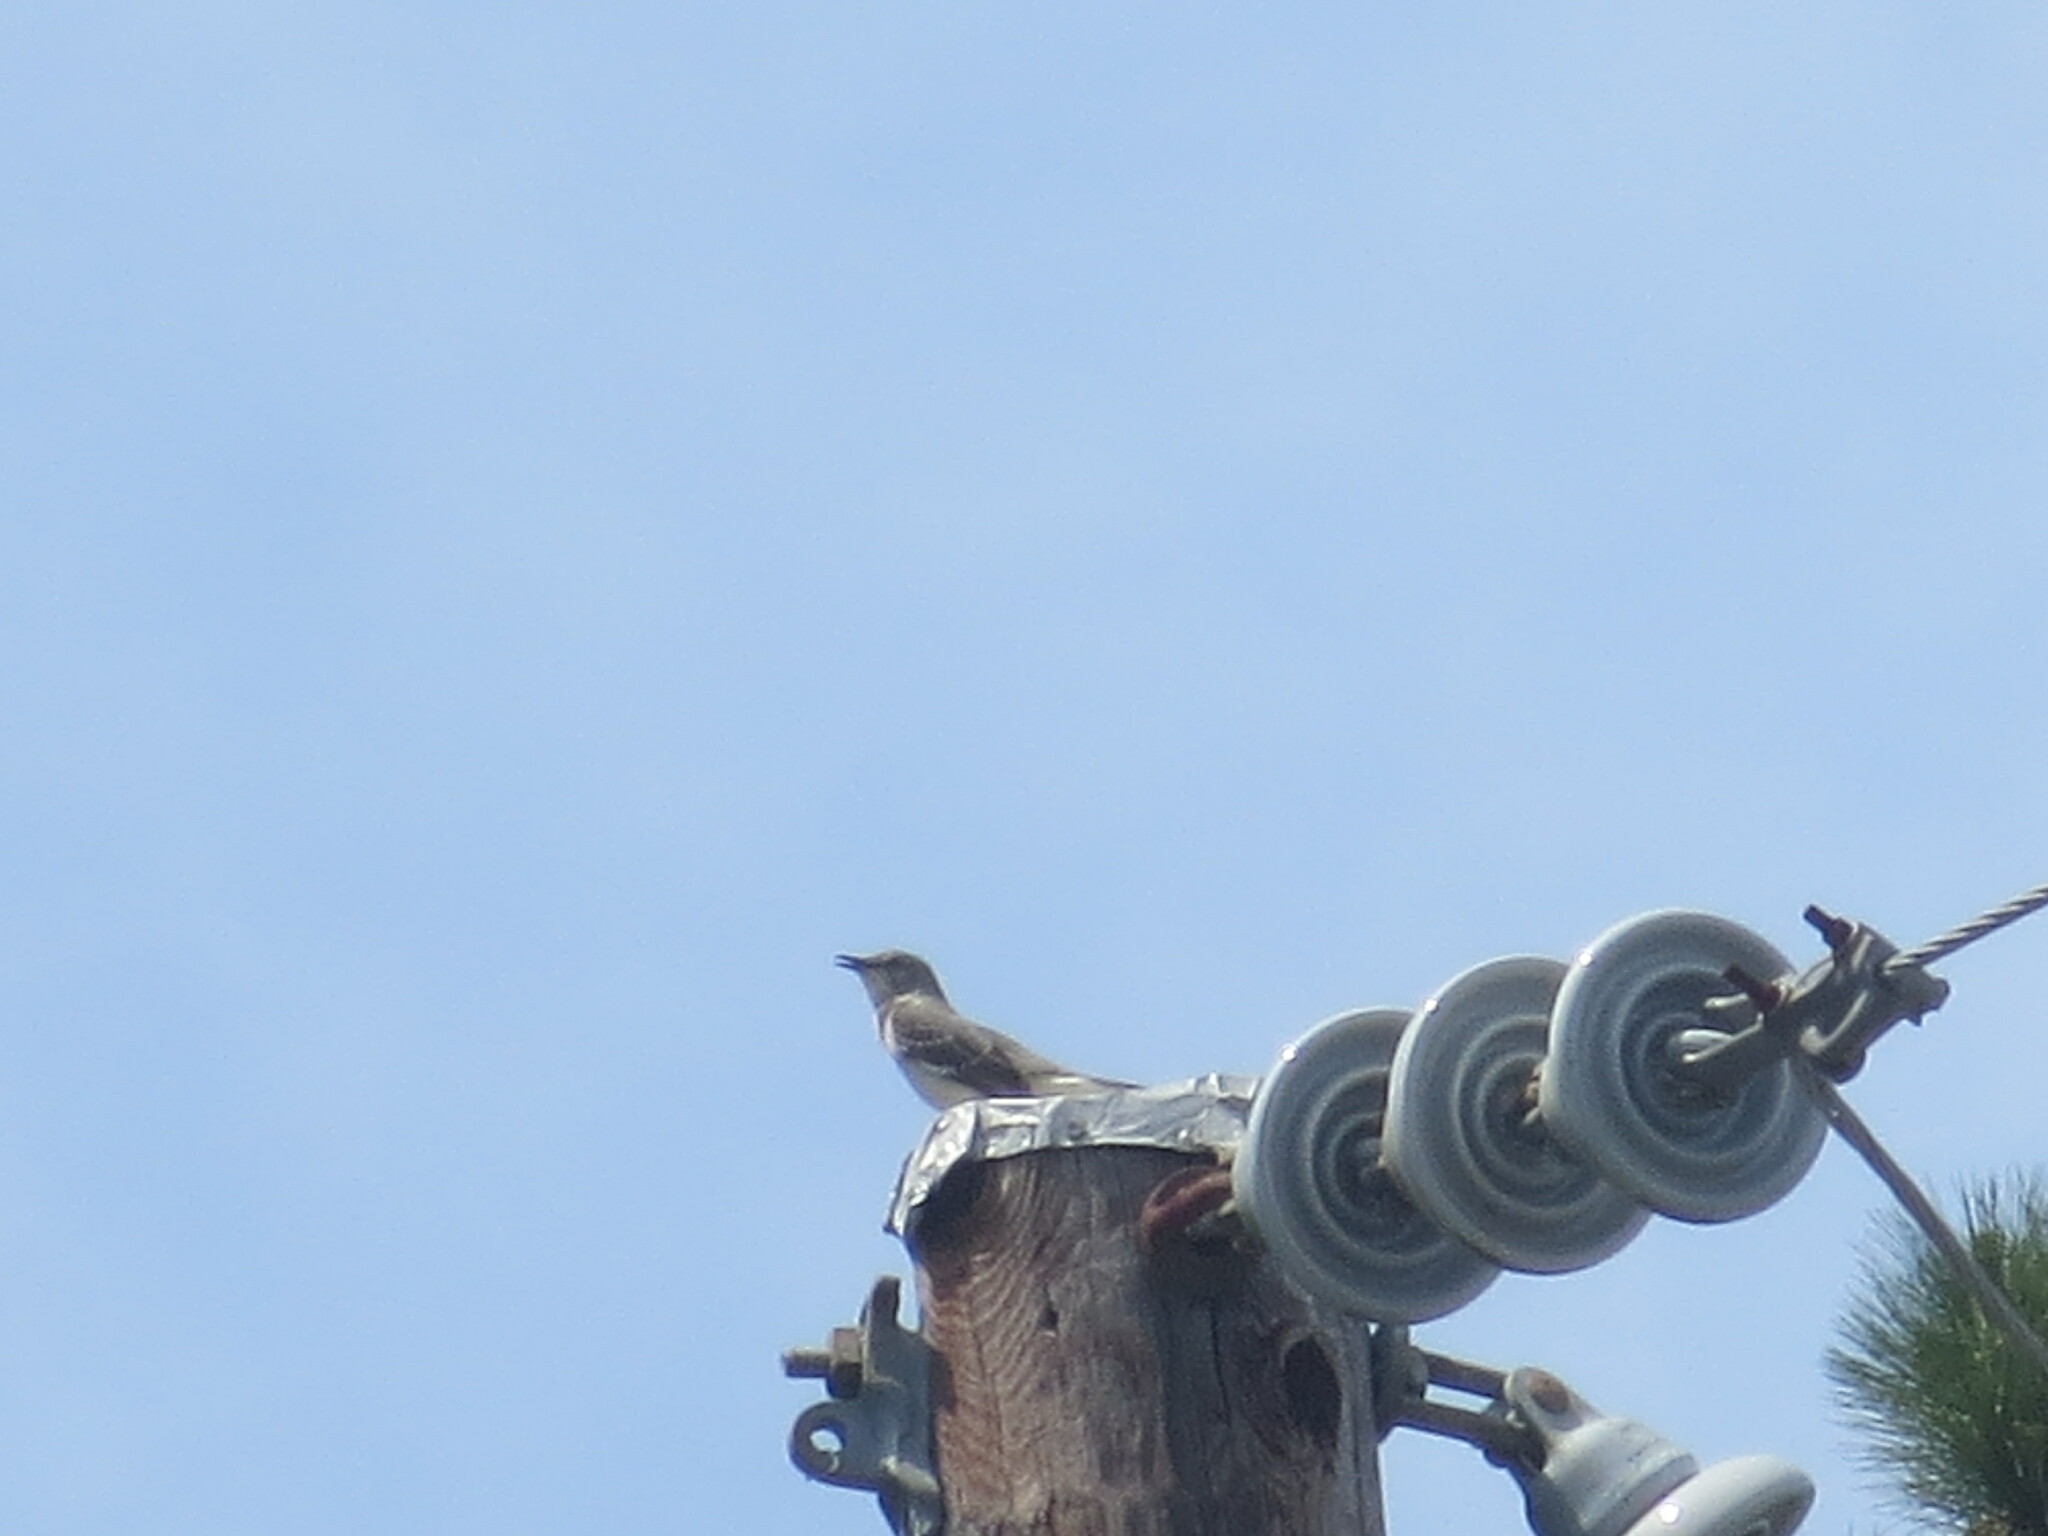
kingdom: Animalia
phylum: Chordata
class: Aves
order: Passeriformes
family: Mimidae
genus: Mimus
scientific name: Mimus polyglottos
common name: Northern mockingbird
